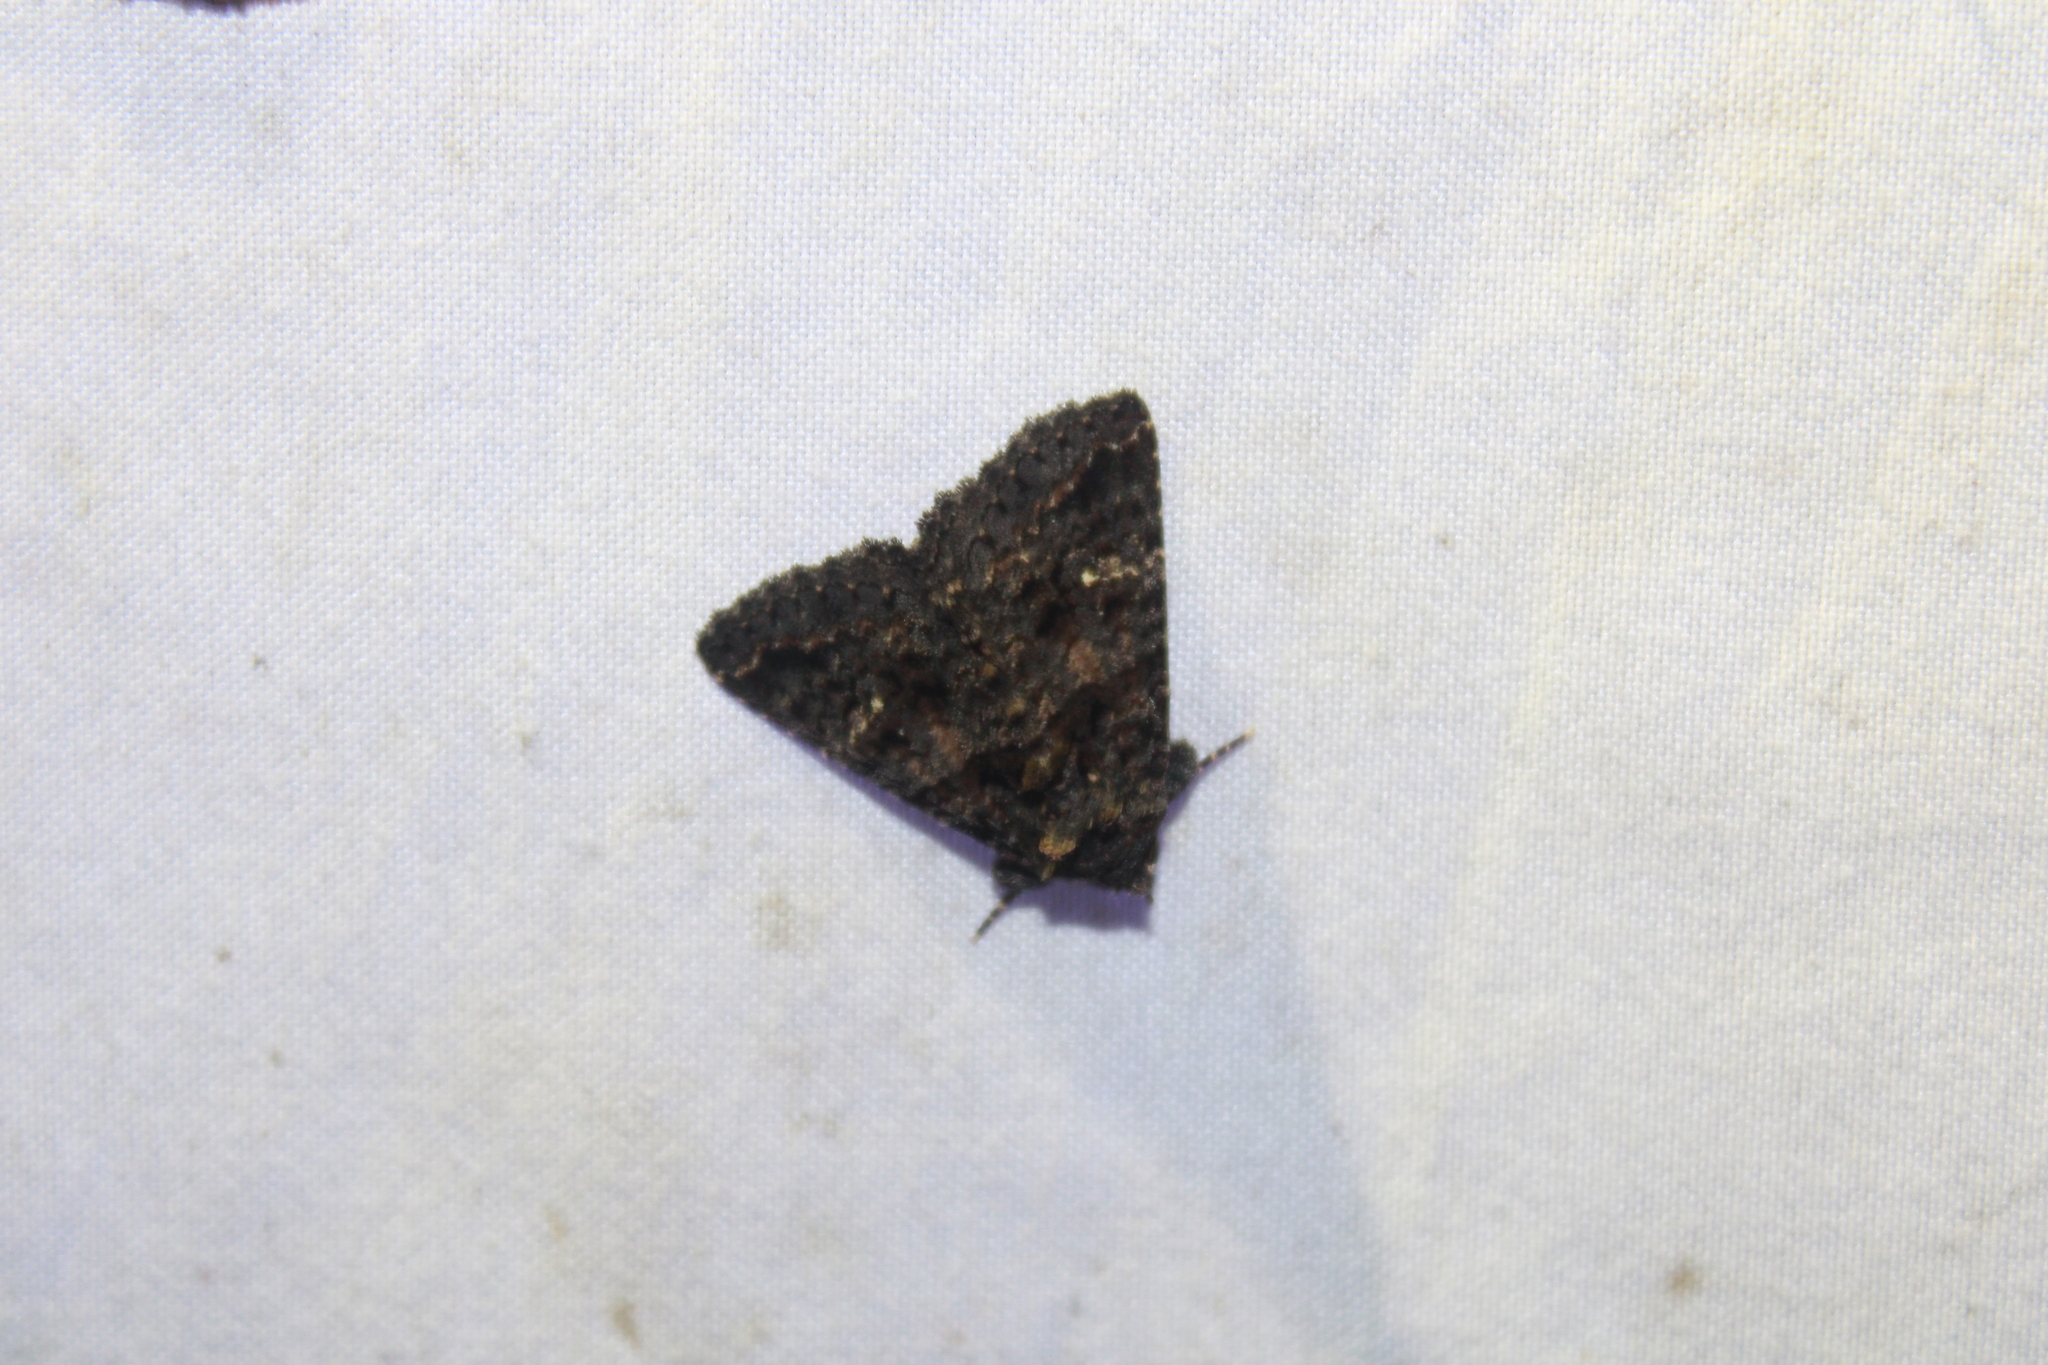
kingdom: Animalia
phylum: Arthropoda
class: Insecta
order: Lepidoptera
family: Erebidae
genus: Coxina
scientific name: Coxina cinctipalpis
